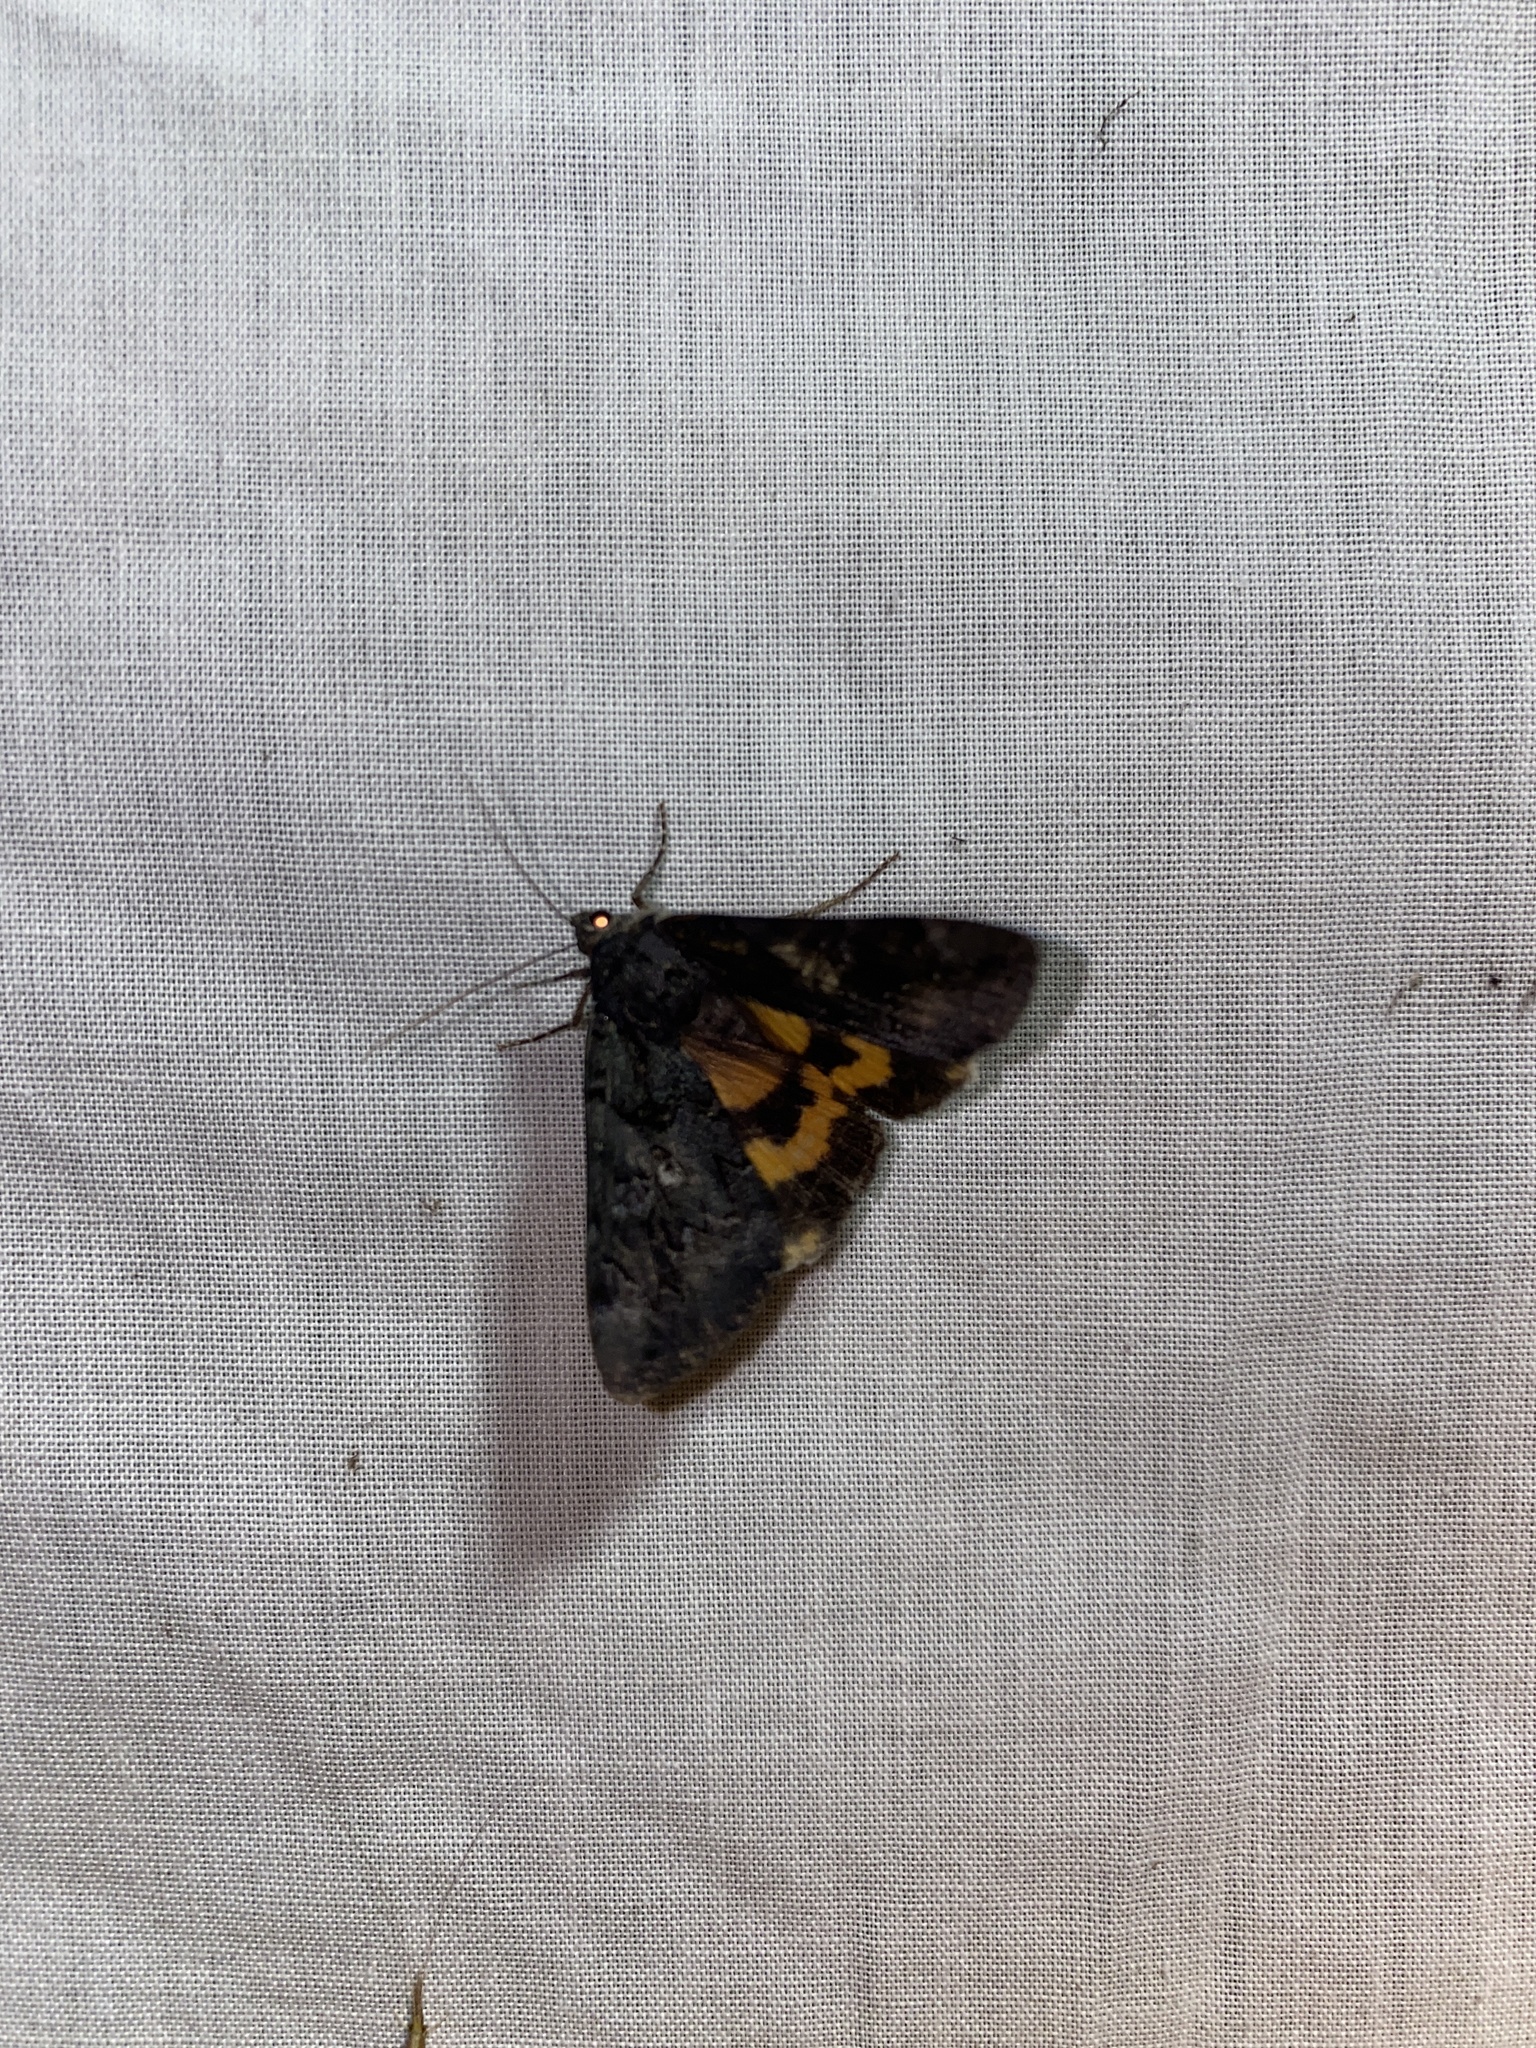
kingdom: Animalia
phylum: Arthropoda
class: Insecta
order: Lepidoptera
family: Erebidae
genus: Catocala
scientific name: Catocala antinympha
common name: Sweetfern underwing
